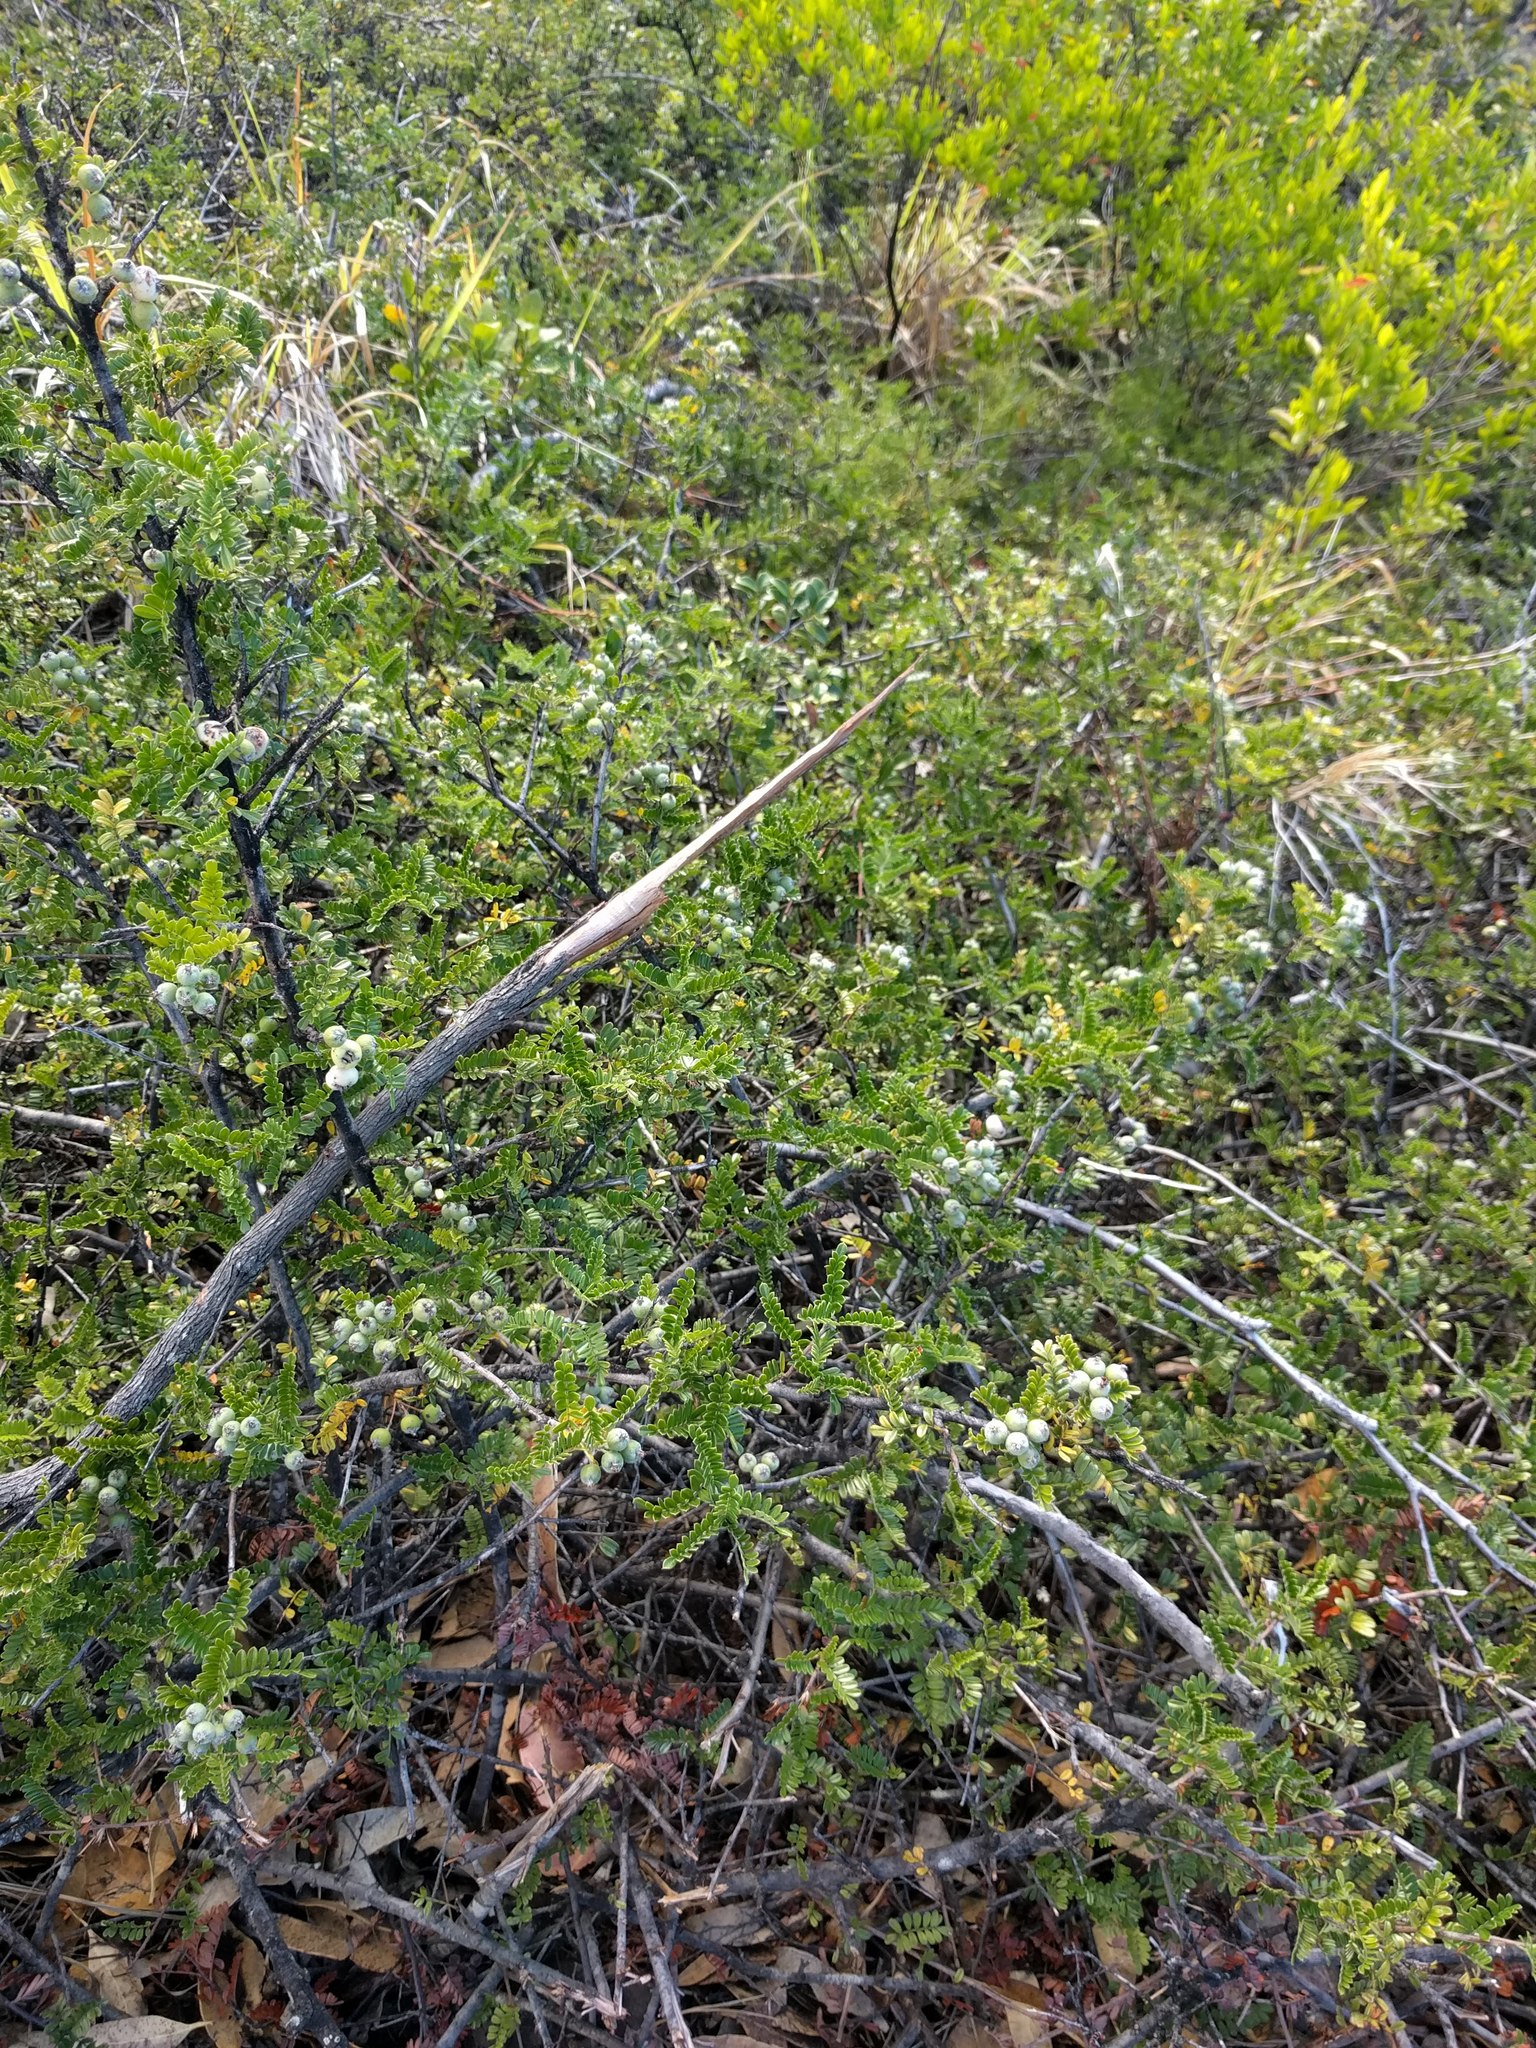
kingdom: Plantae
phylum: Tracheophyta
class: Magnoliopsida
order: Rosales
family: Rosaceae
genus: Osteomeles
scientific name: Osteomeles anthyllidifolia
